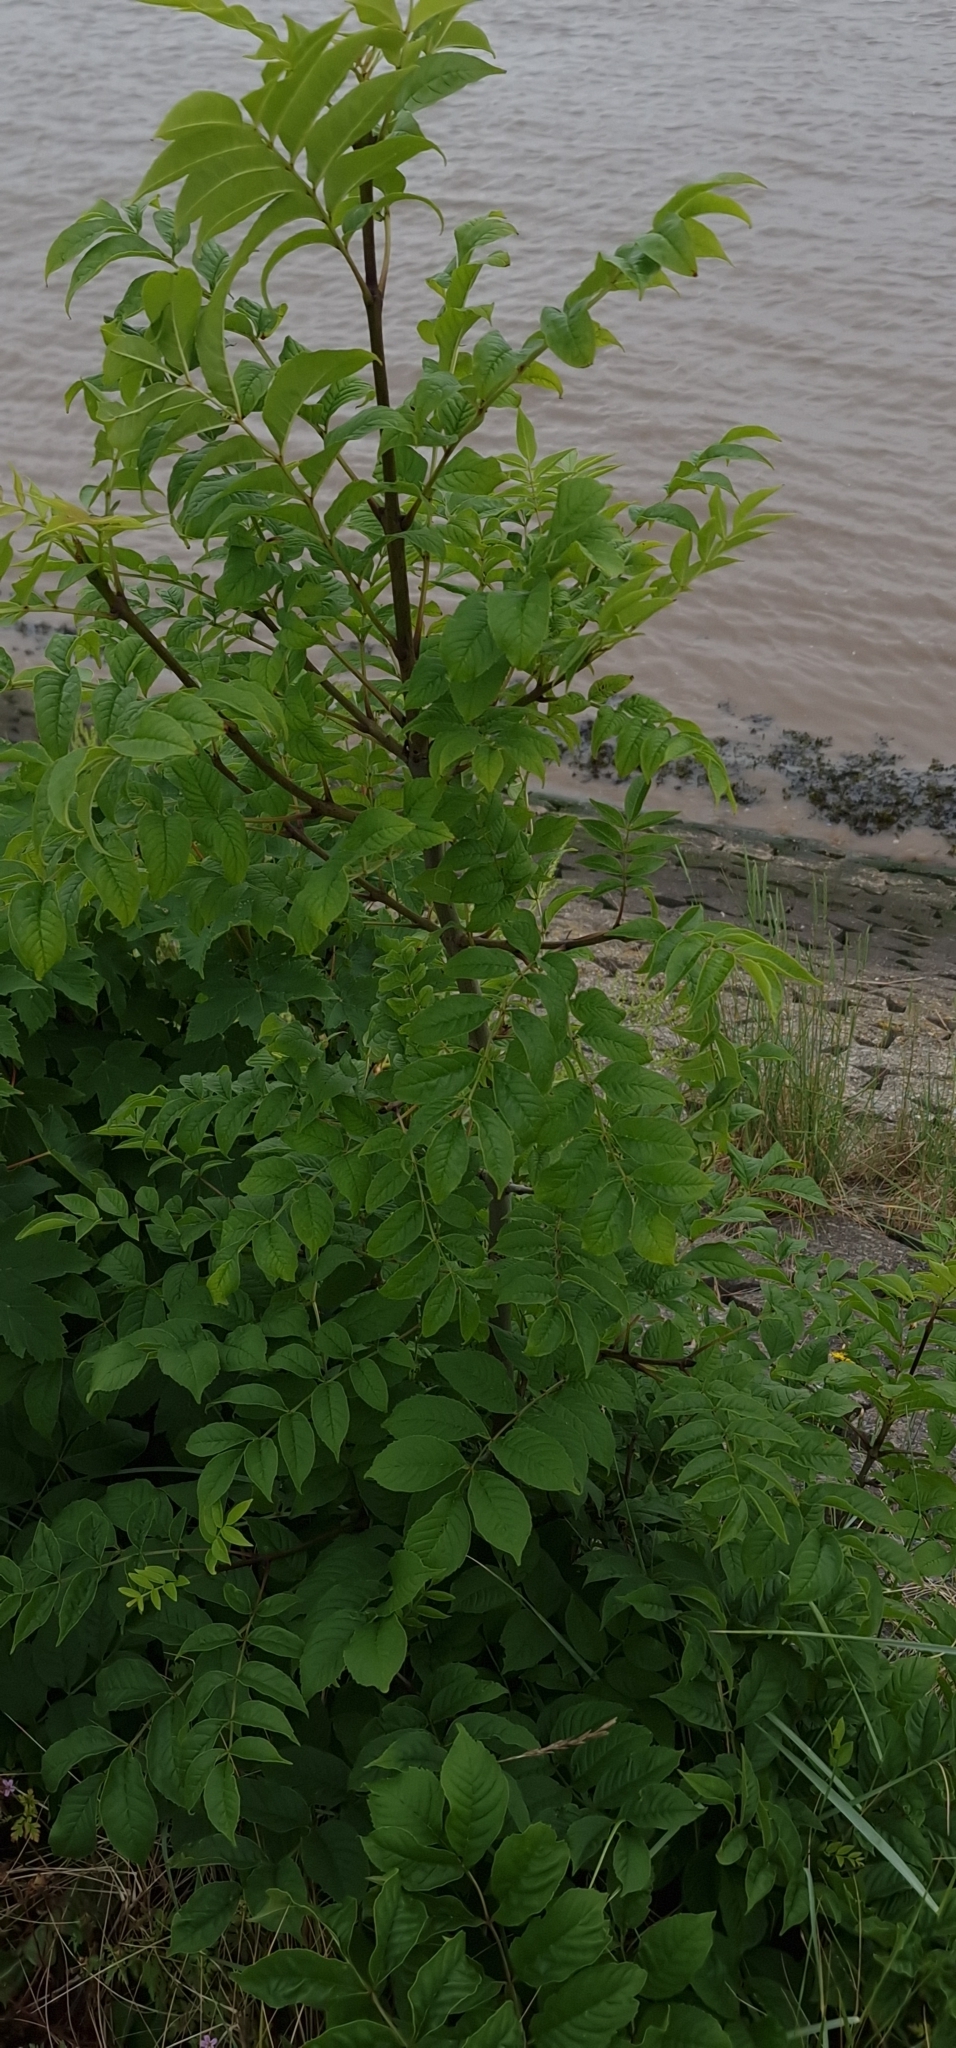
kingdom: Plantae
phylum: Tracheophyta
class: Magnoliopsida
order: Lamiales
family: Oleaceae
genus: Fraxinus
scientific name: Fraxinus excelsior
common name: European ash
